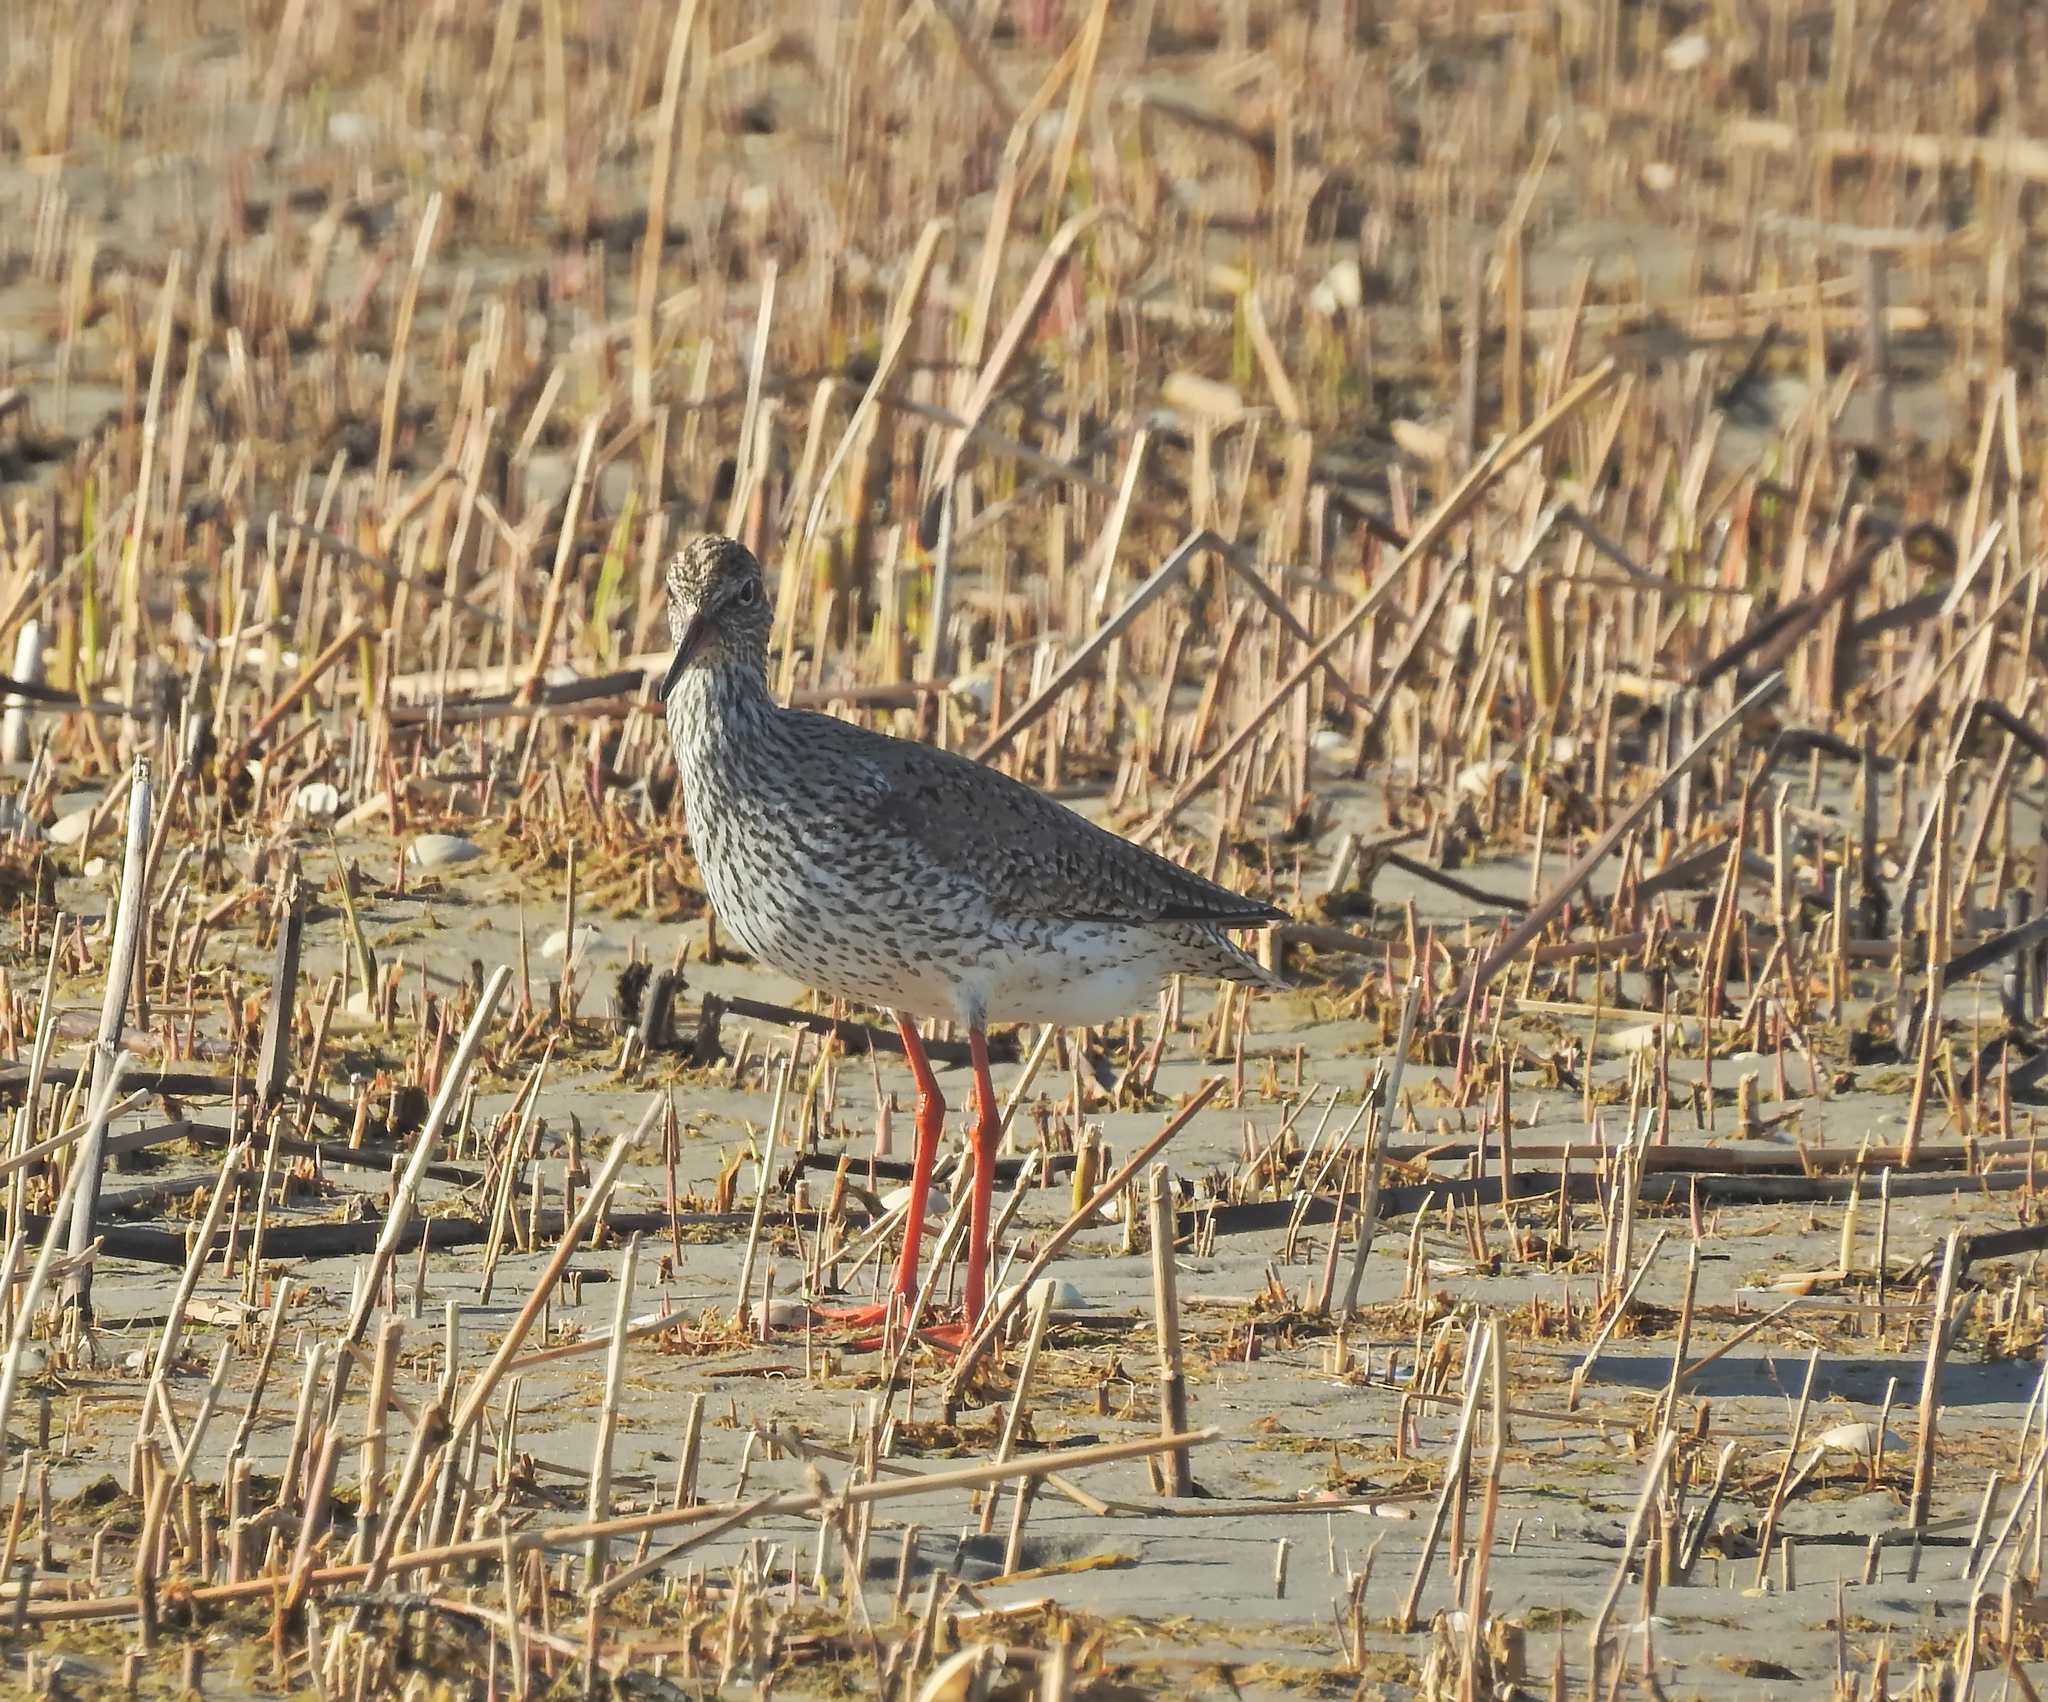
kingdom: Animalia
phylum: Chordata
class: Aves
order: Charadriiformes
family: Scolopacidae
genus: Tringa
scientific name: Tringa totanus
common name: Common redshank
